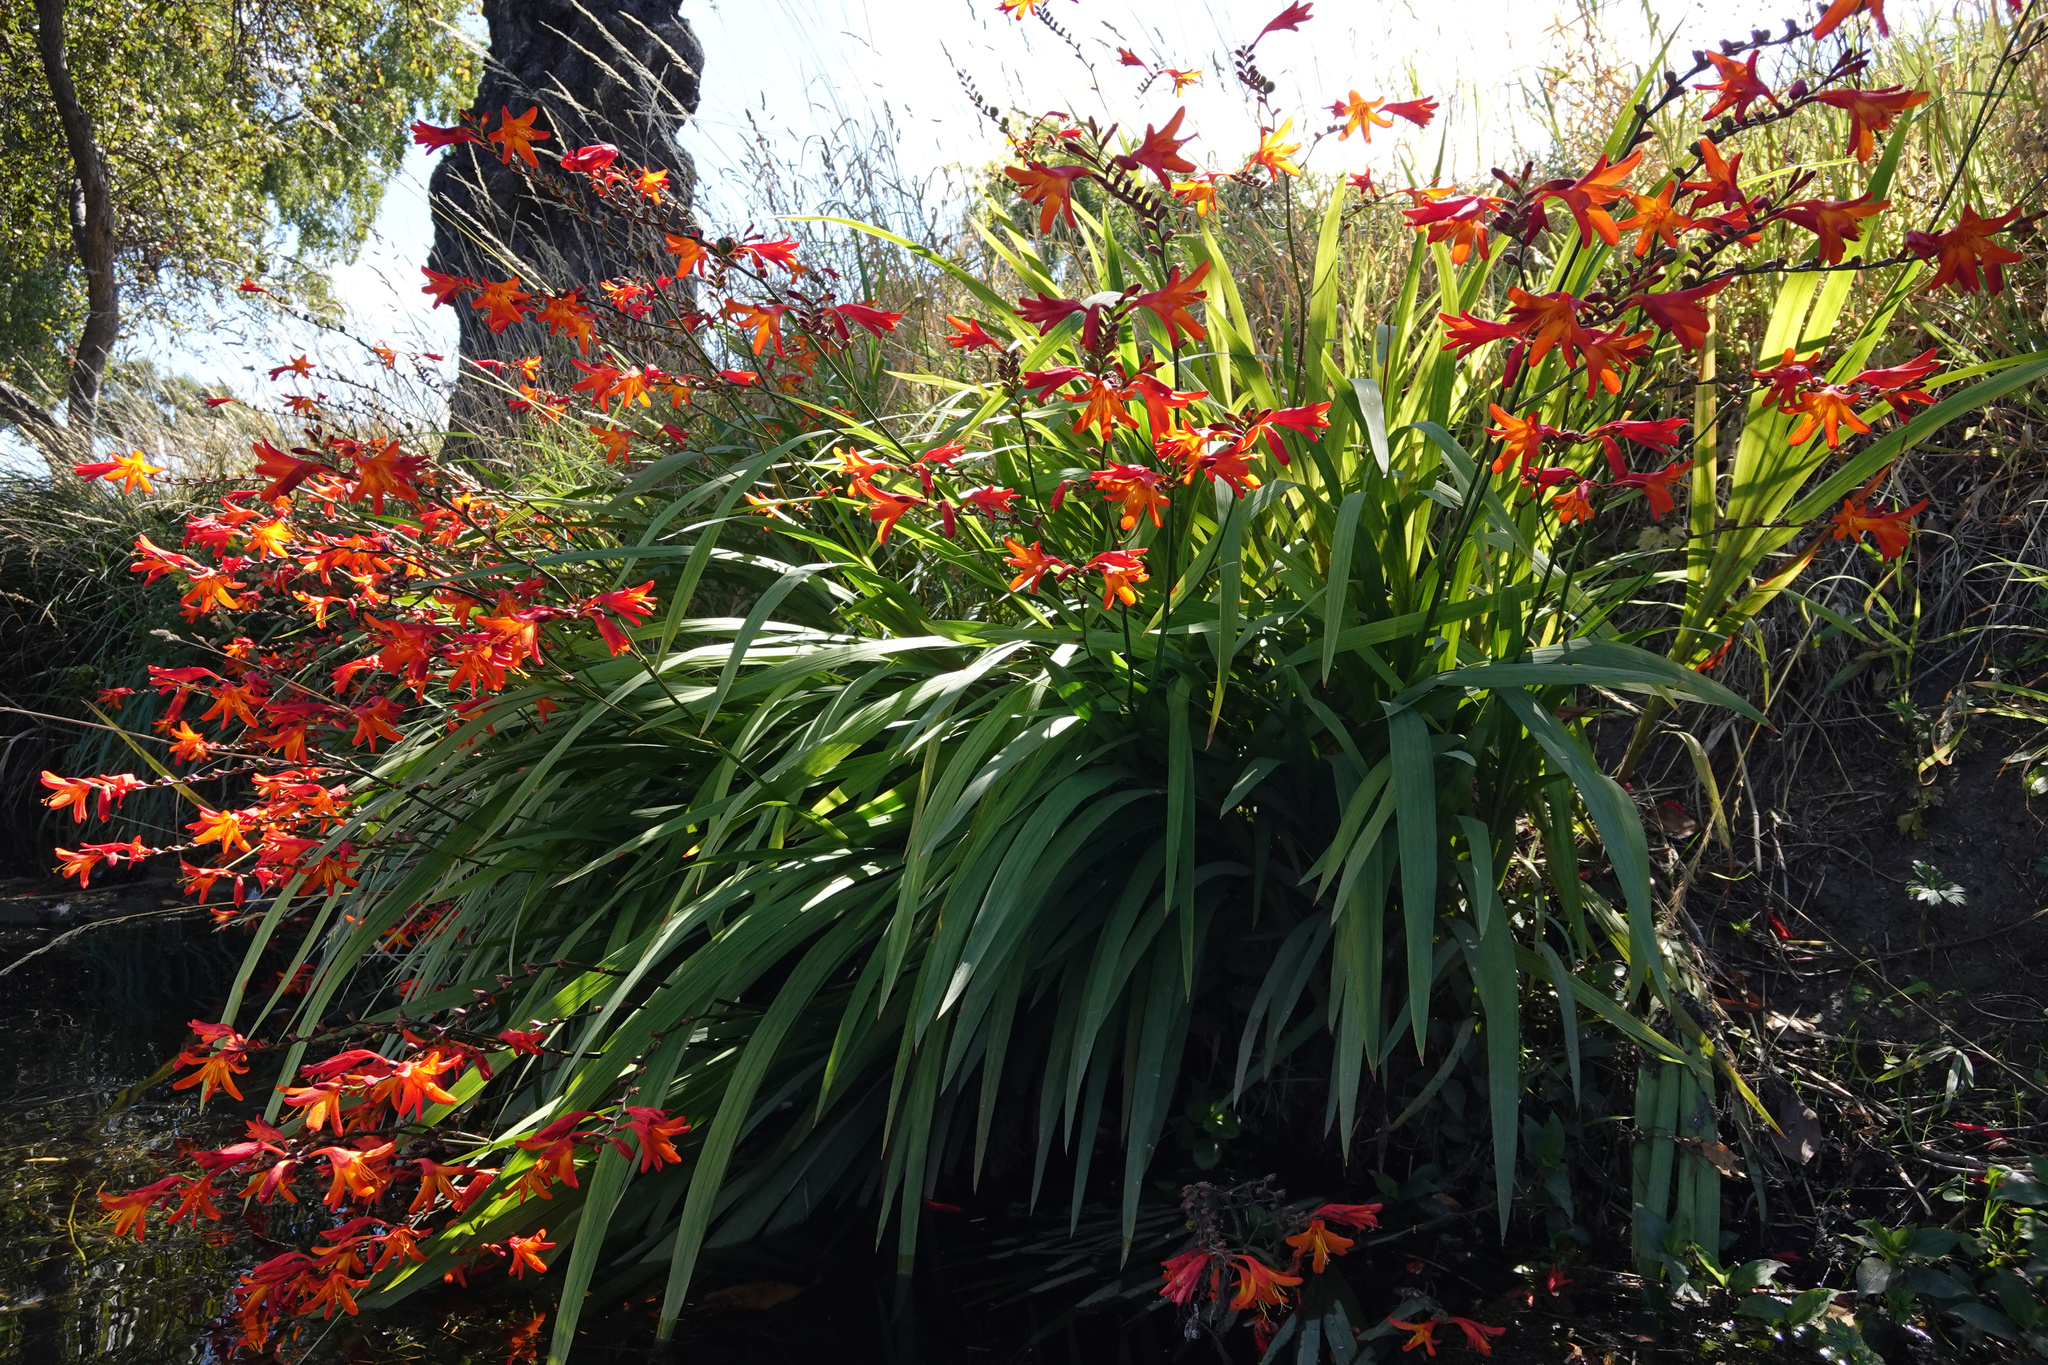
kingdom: Plantae
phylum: Tracheophyta
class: Liliopsida
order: Asparagales
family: Iridaceae
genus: Crocosmia
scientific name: Crocosmia crocosmiiflora
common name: Montbretia
